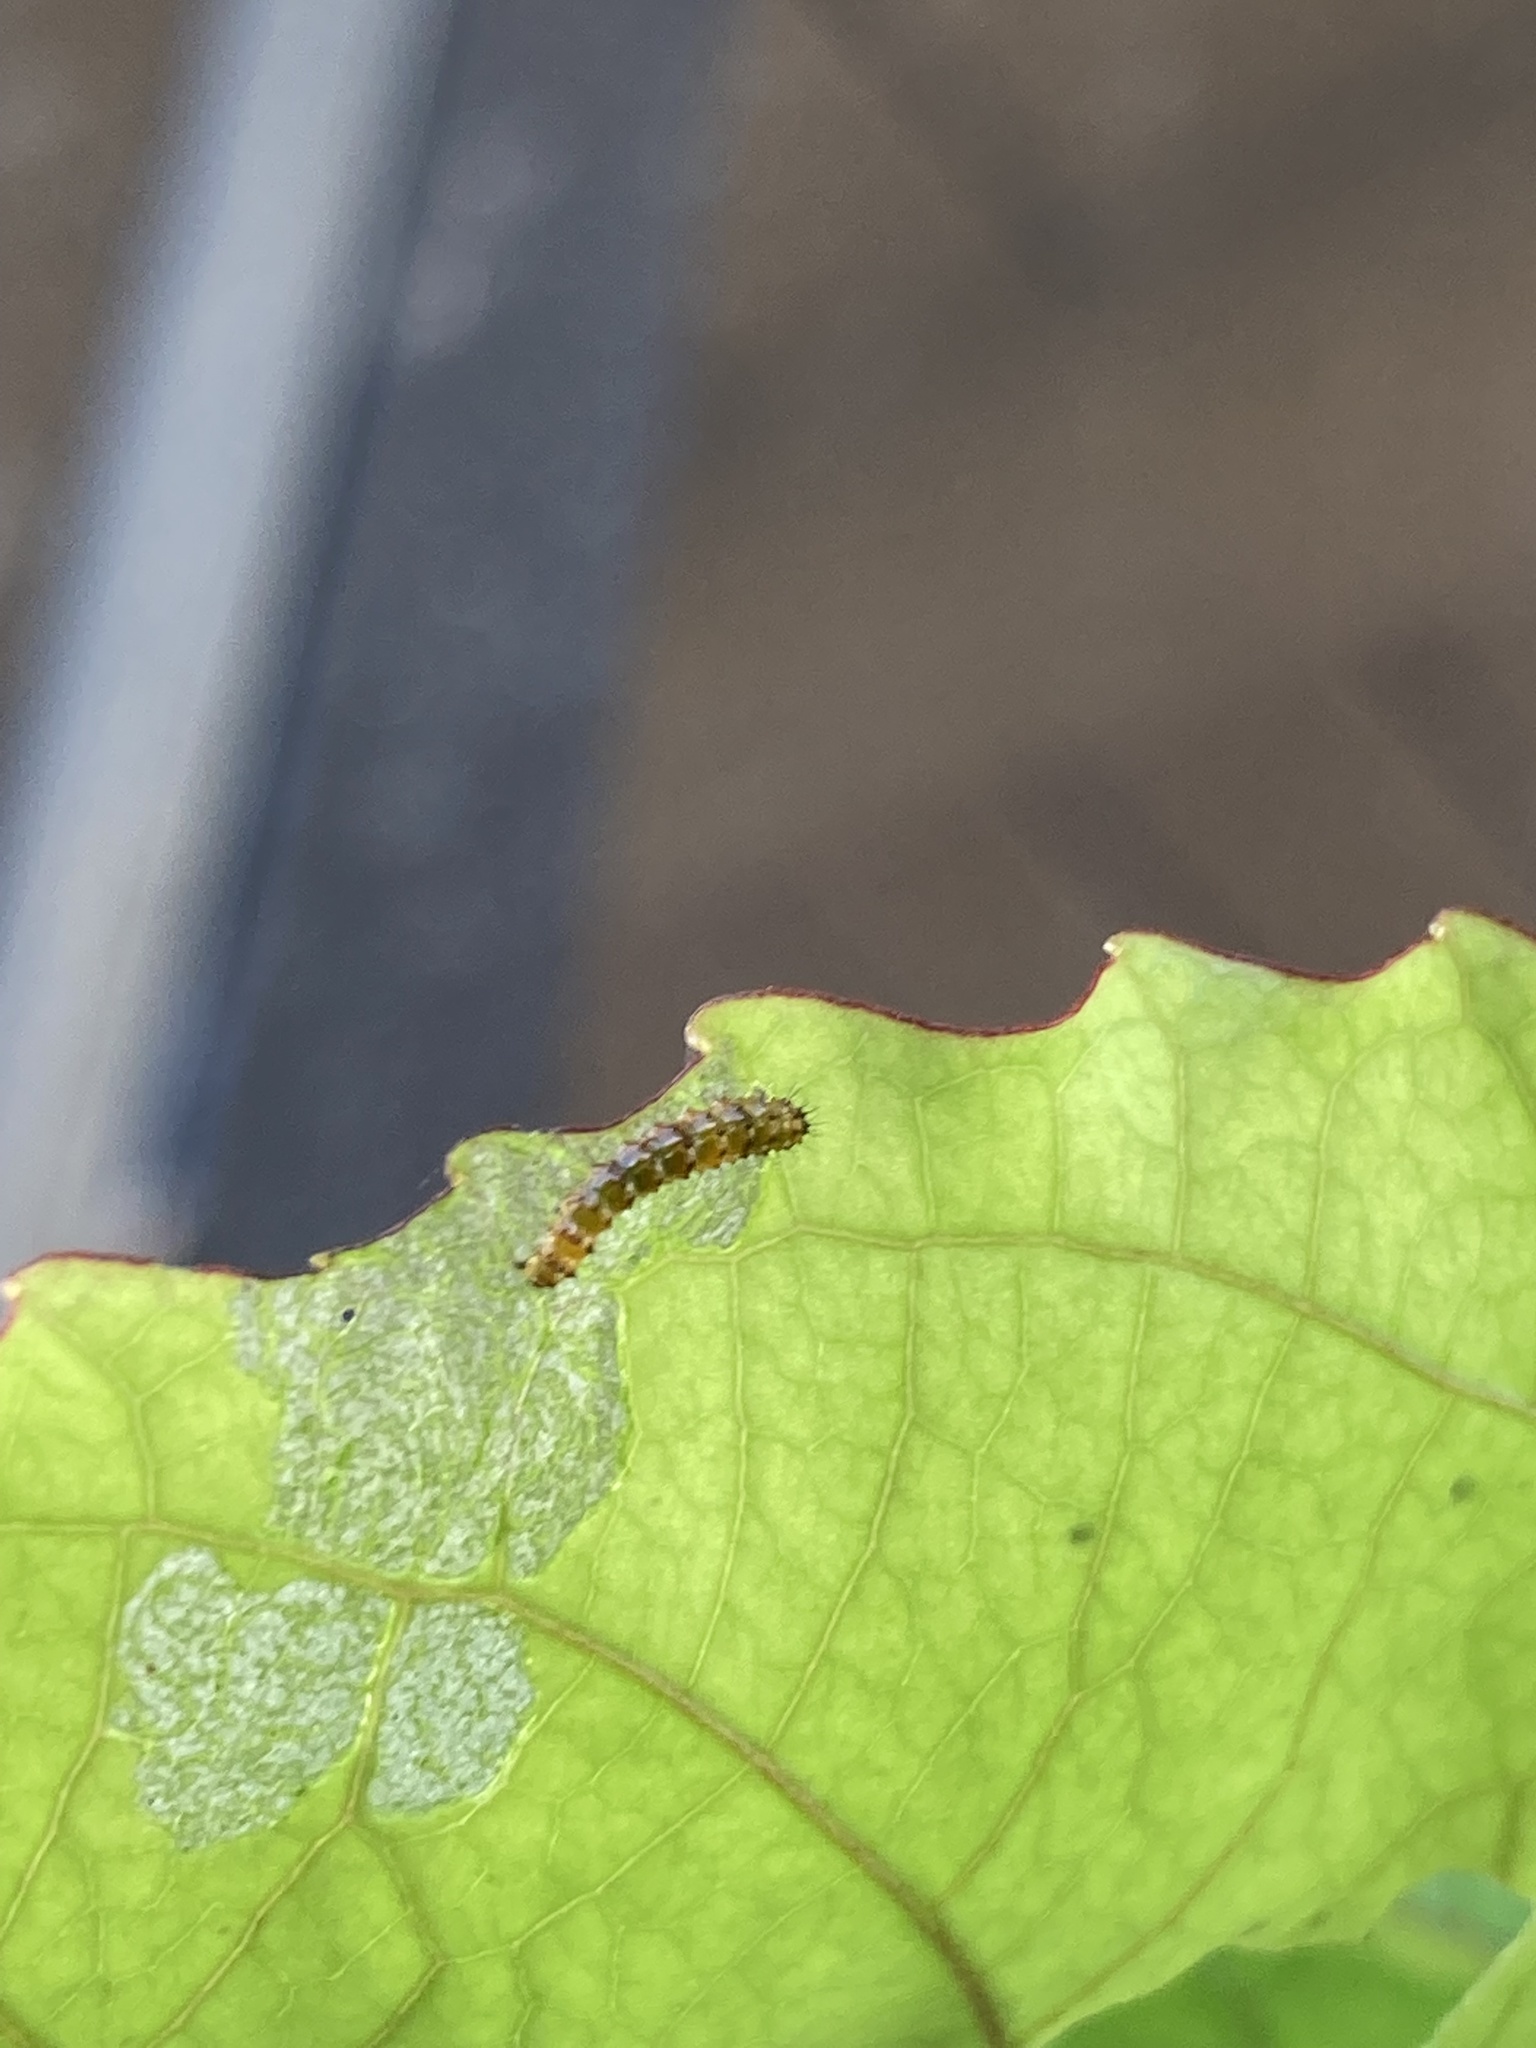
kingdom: Animalia
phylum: Arthropoda
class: Insecta
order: Lepidoptera
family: Nymphalidae
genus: Dione
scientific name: Dione vanillae
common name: Gulf fritillary
